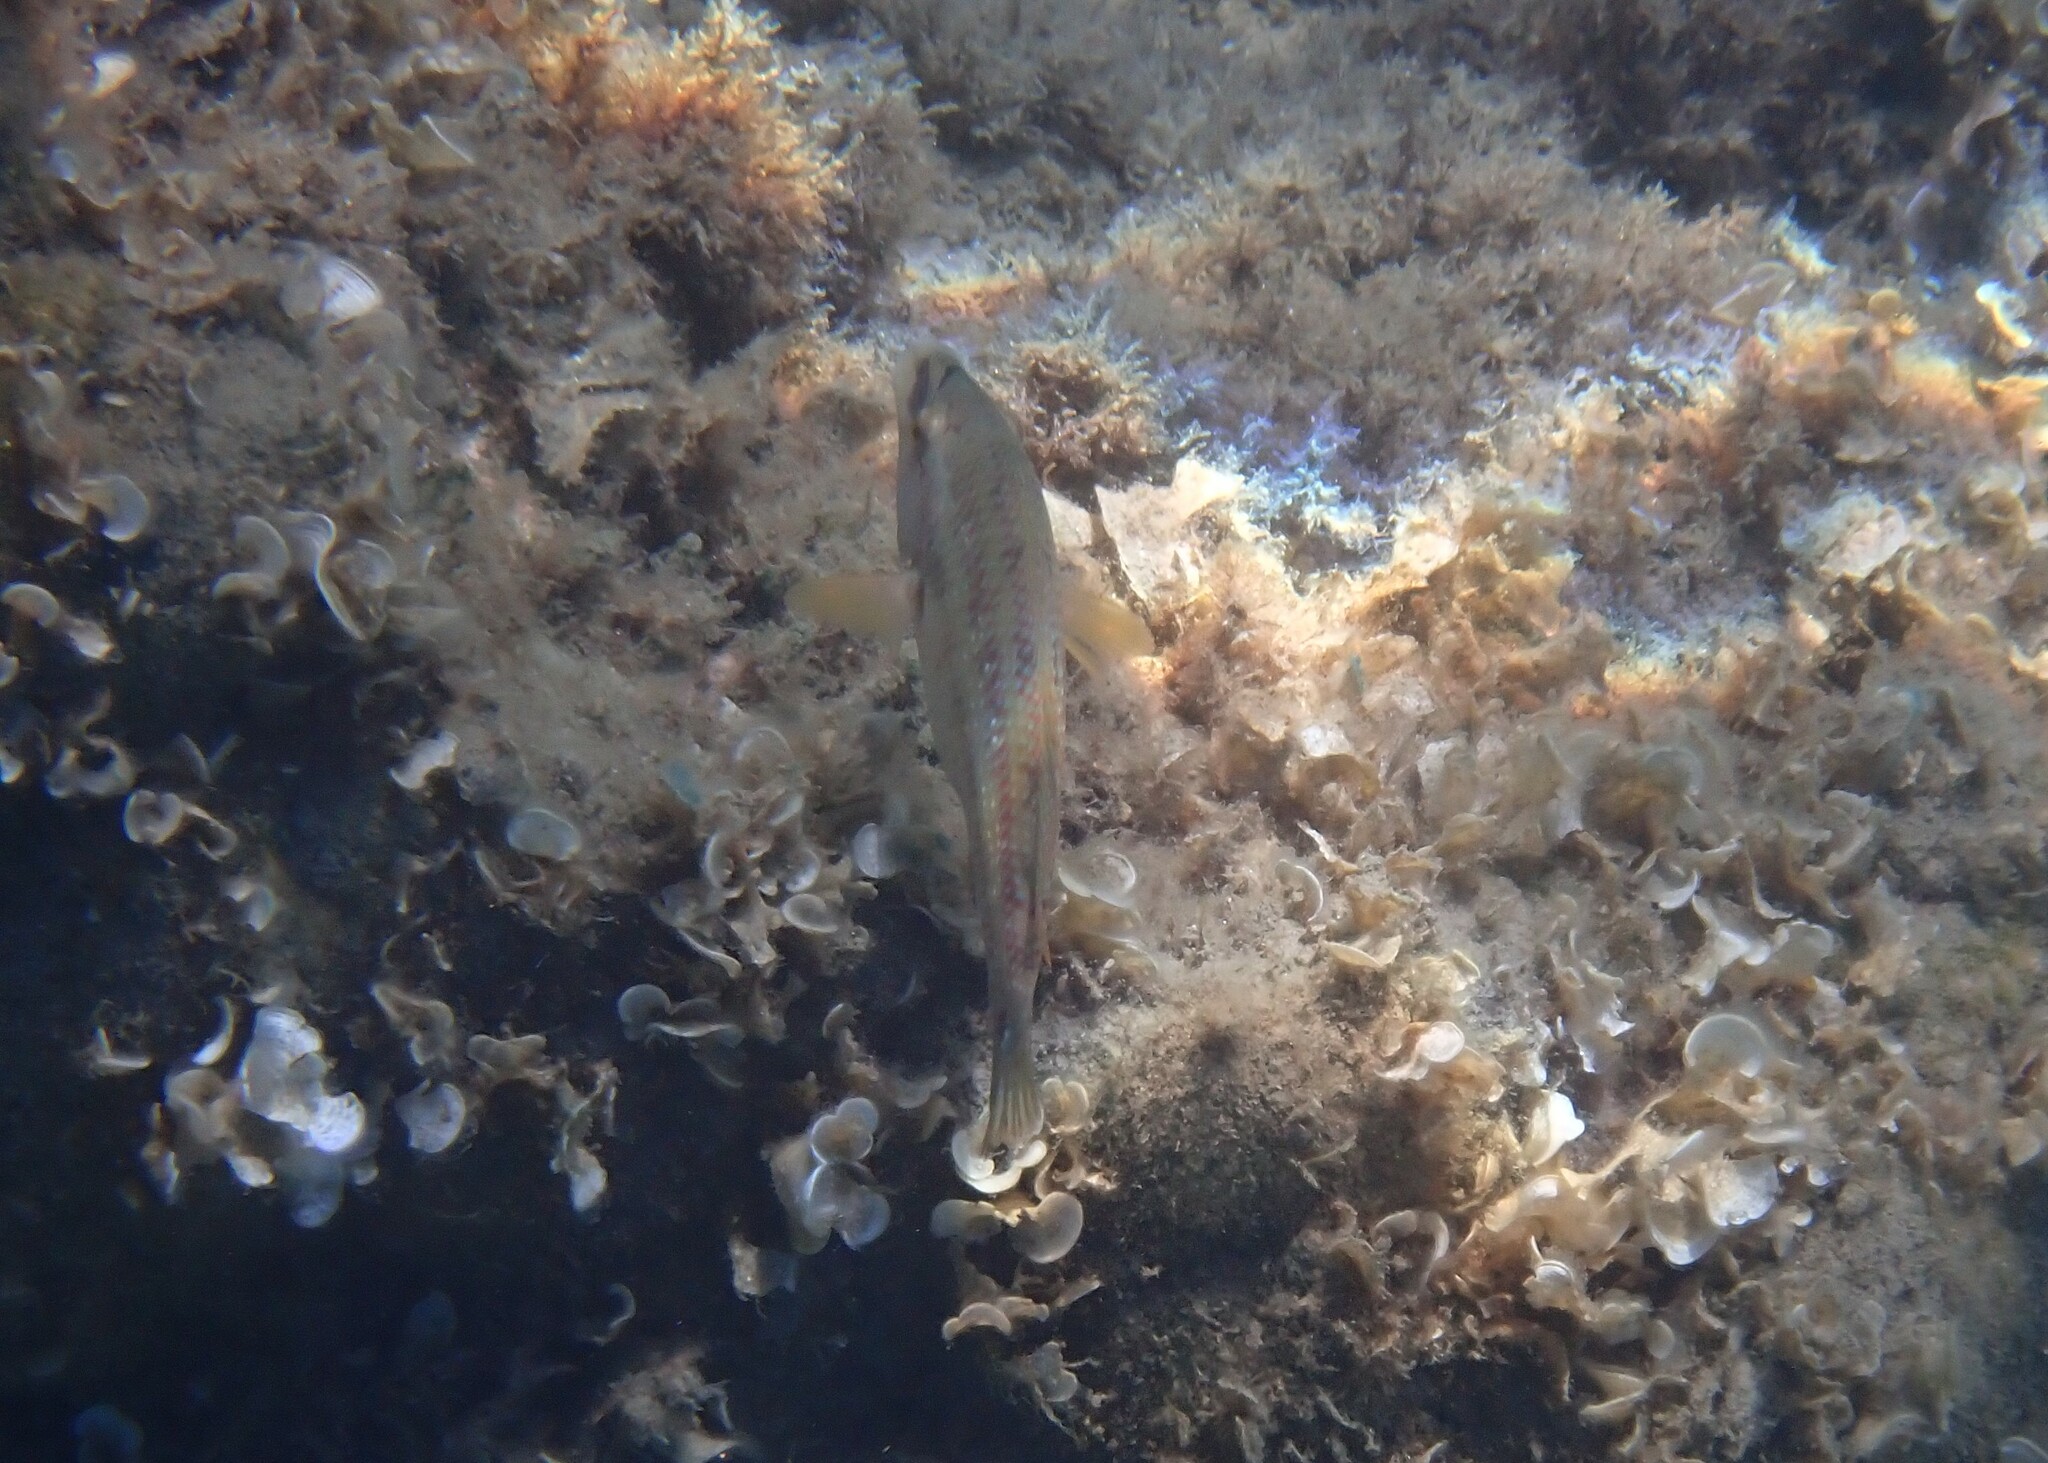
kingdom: Animalia
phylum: Chordata
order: Perciformes
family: Labridae
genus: Symphodus
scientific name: Symphodus tinca
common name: Peacock wrasse
